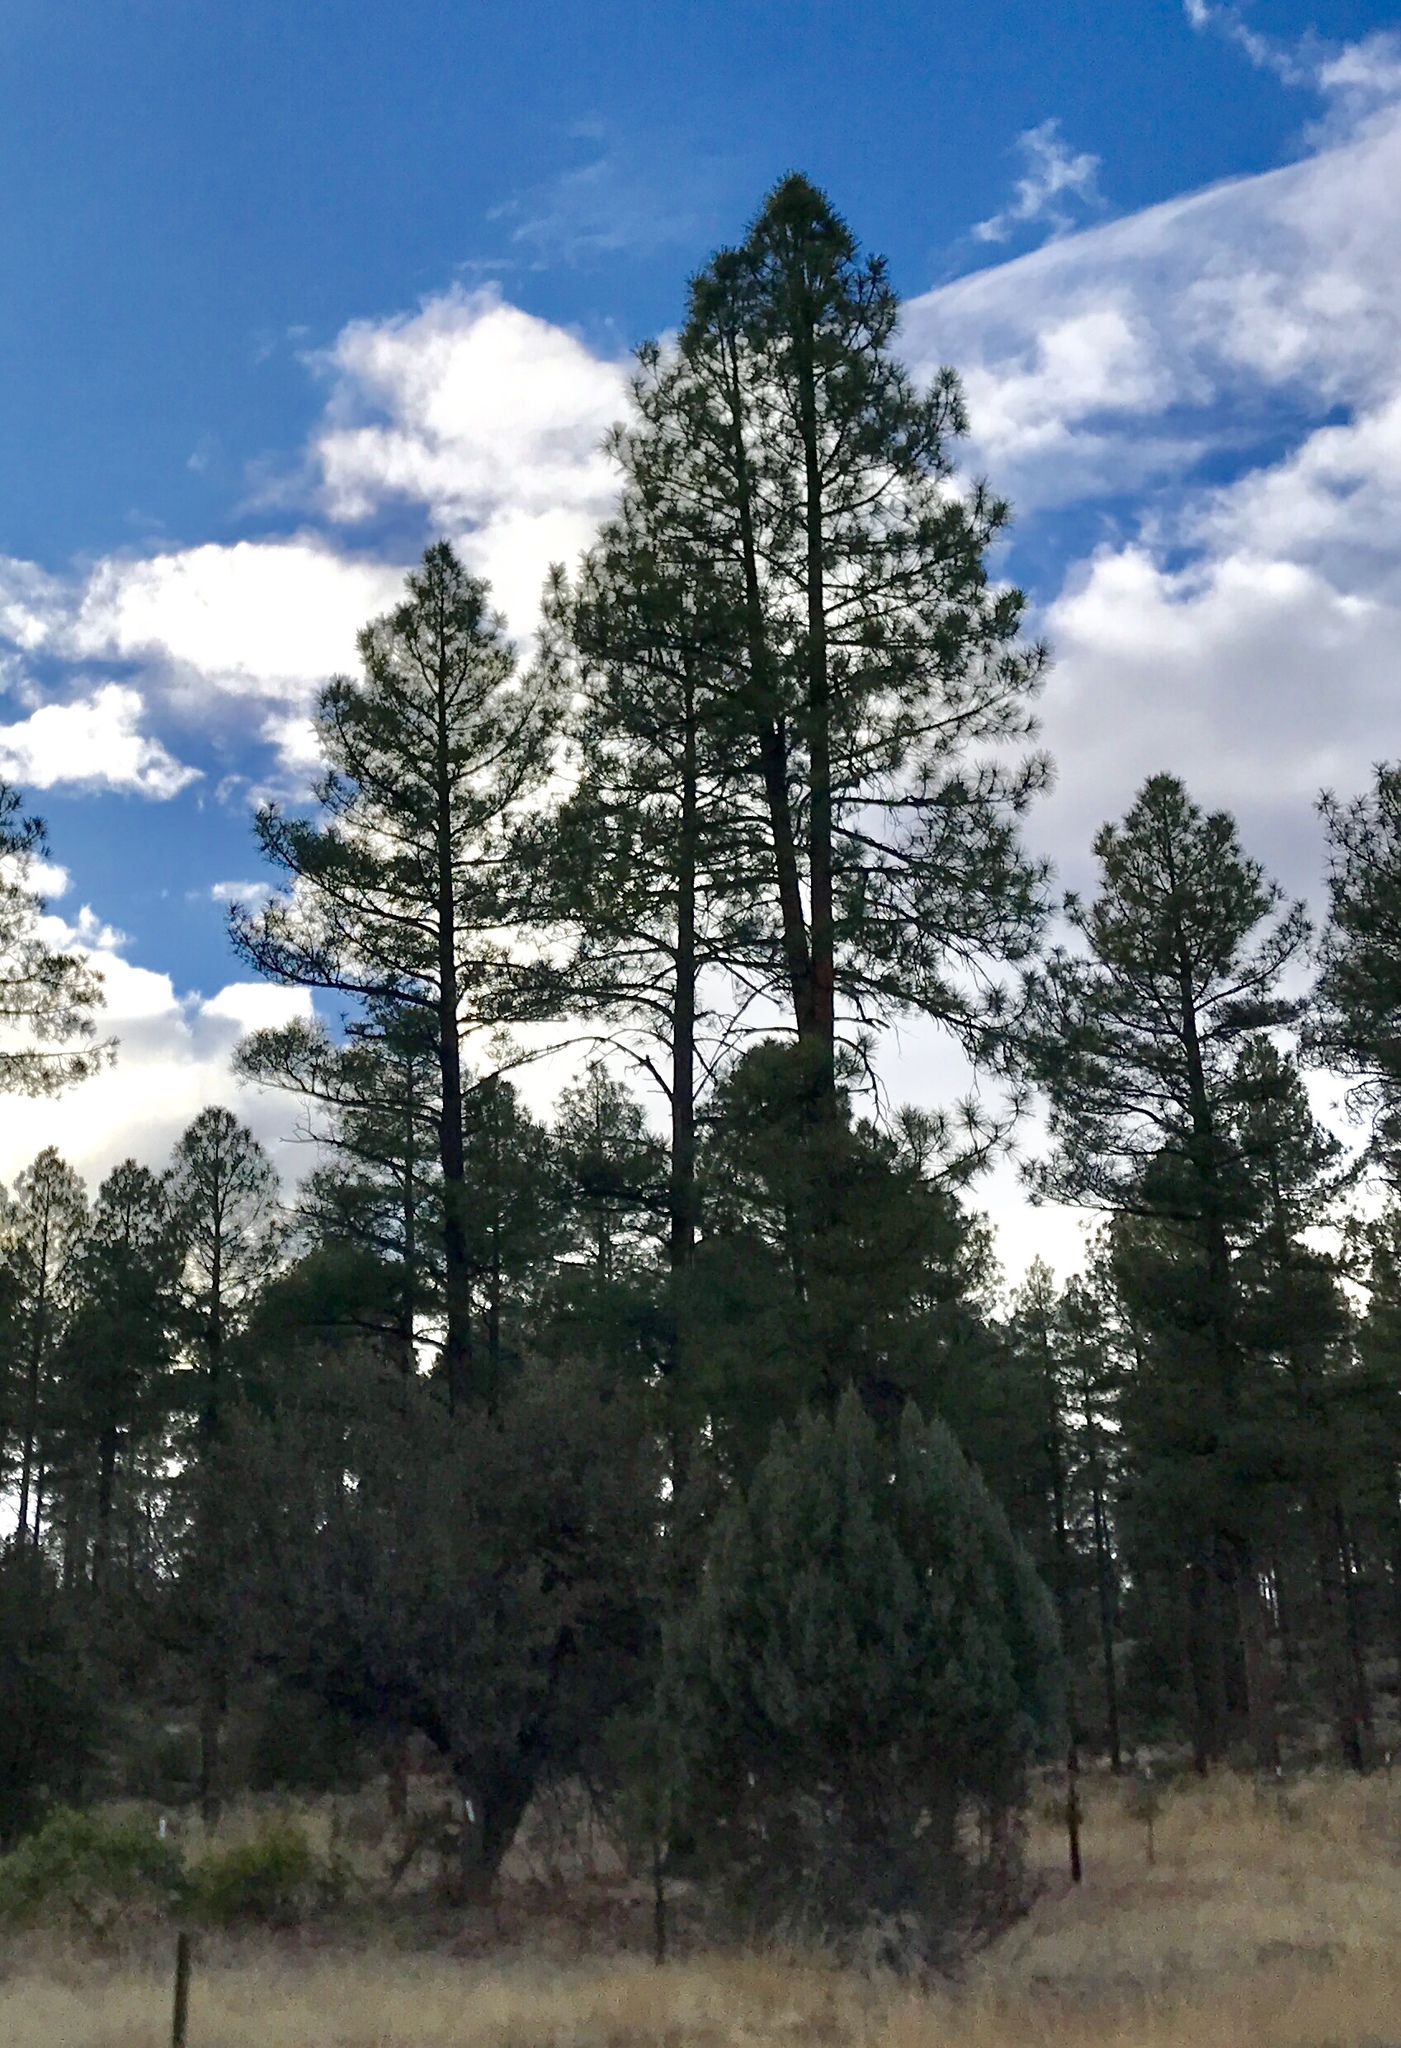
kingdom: Plantae
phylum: Tracheophyta
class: Pinopsida
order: Pinales
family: Pinaceae
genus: Pinus
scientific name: Pinus ponderosa
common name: Western yellow-pine
